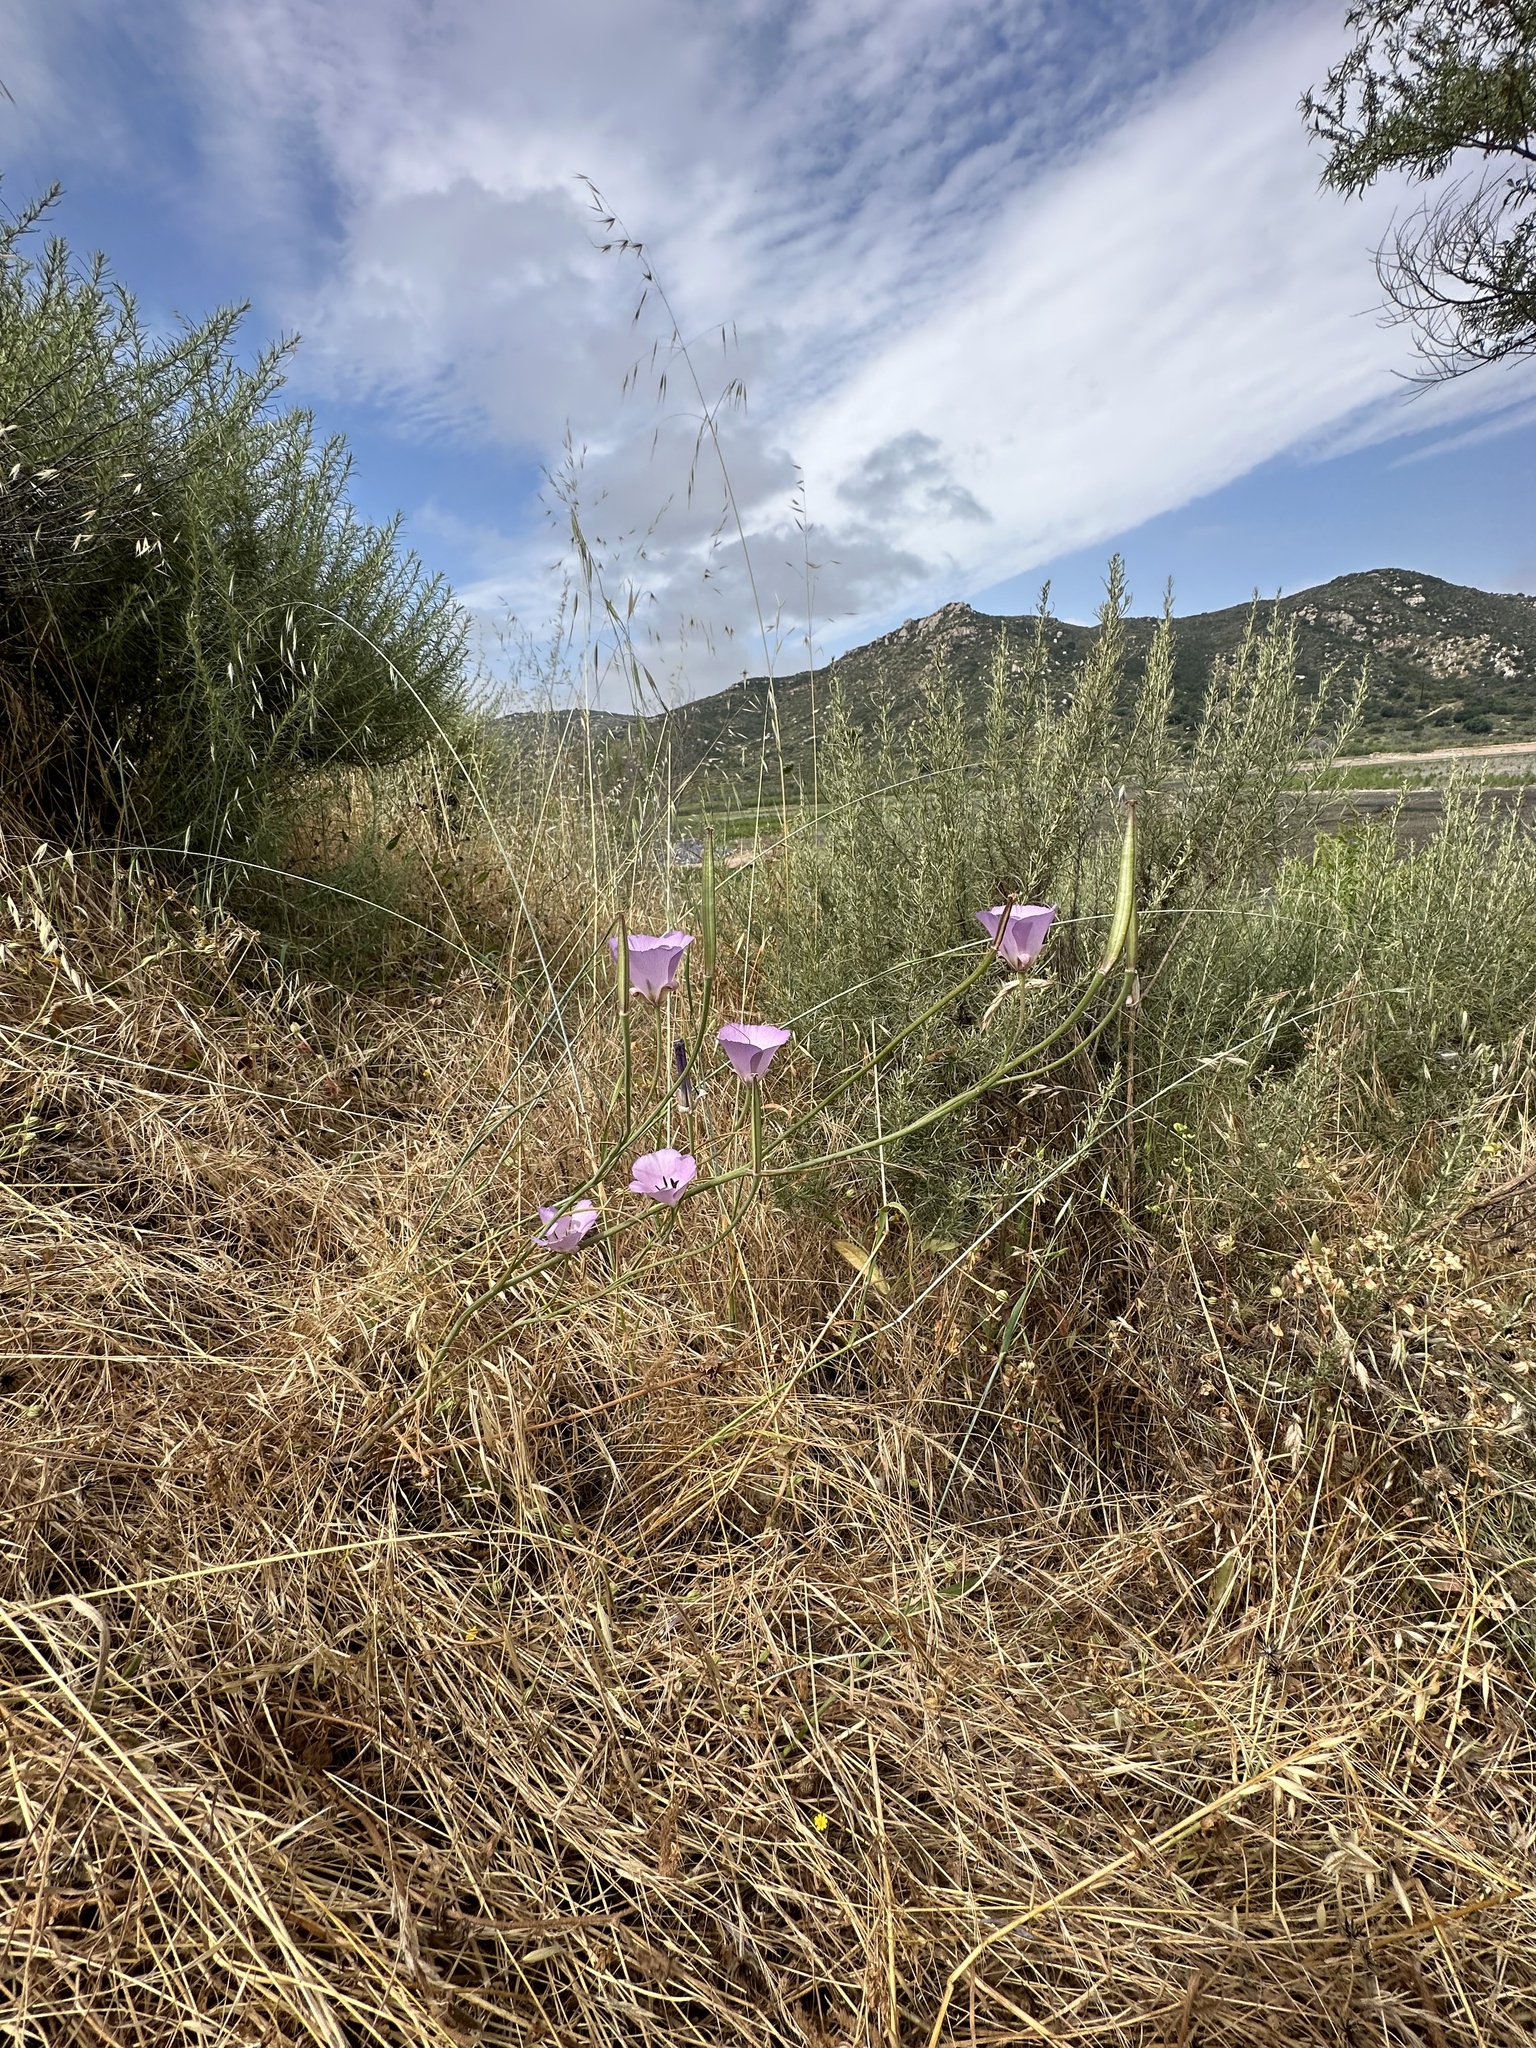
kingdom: Plantae
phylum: Tracheophyta
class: Liliopsida
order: Liliales
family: Liliaceae
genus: Calochortus
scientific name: Calochortus splendens
